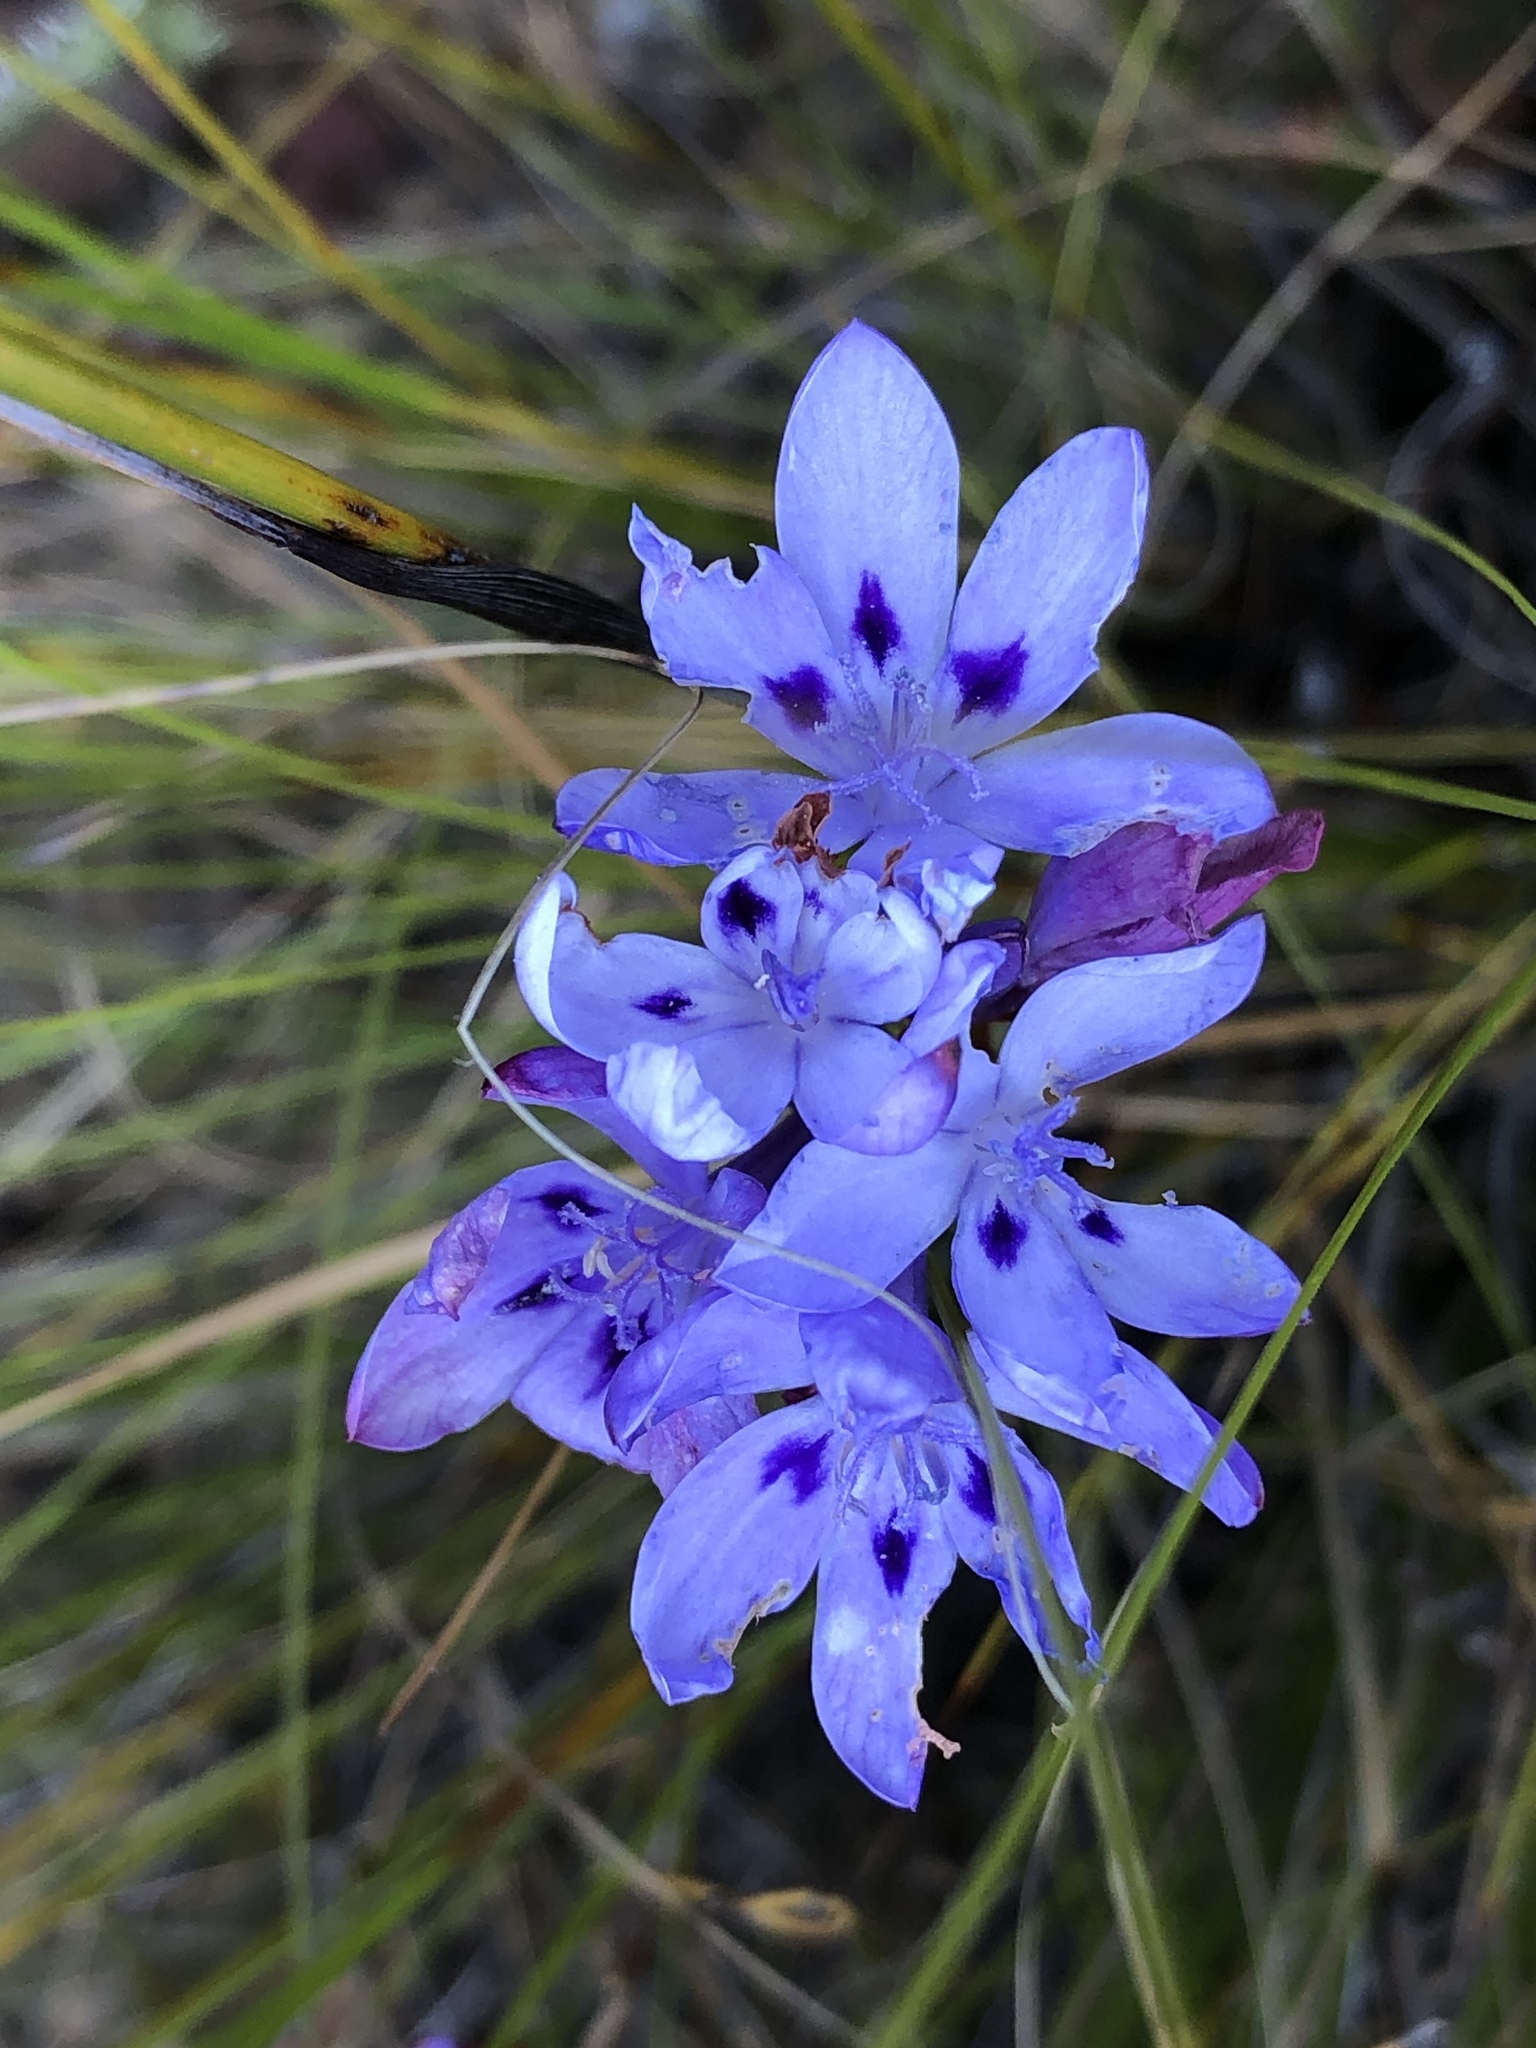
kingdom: Plantae
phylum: Tracheophyta
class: Liliopsida
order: Asparagales
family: Iridaceae
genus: Thereianthus
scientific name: Thereianthus spicatus
